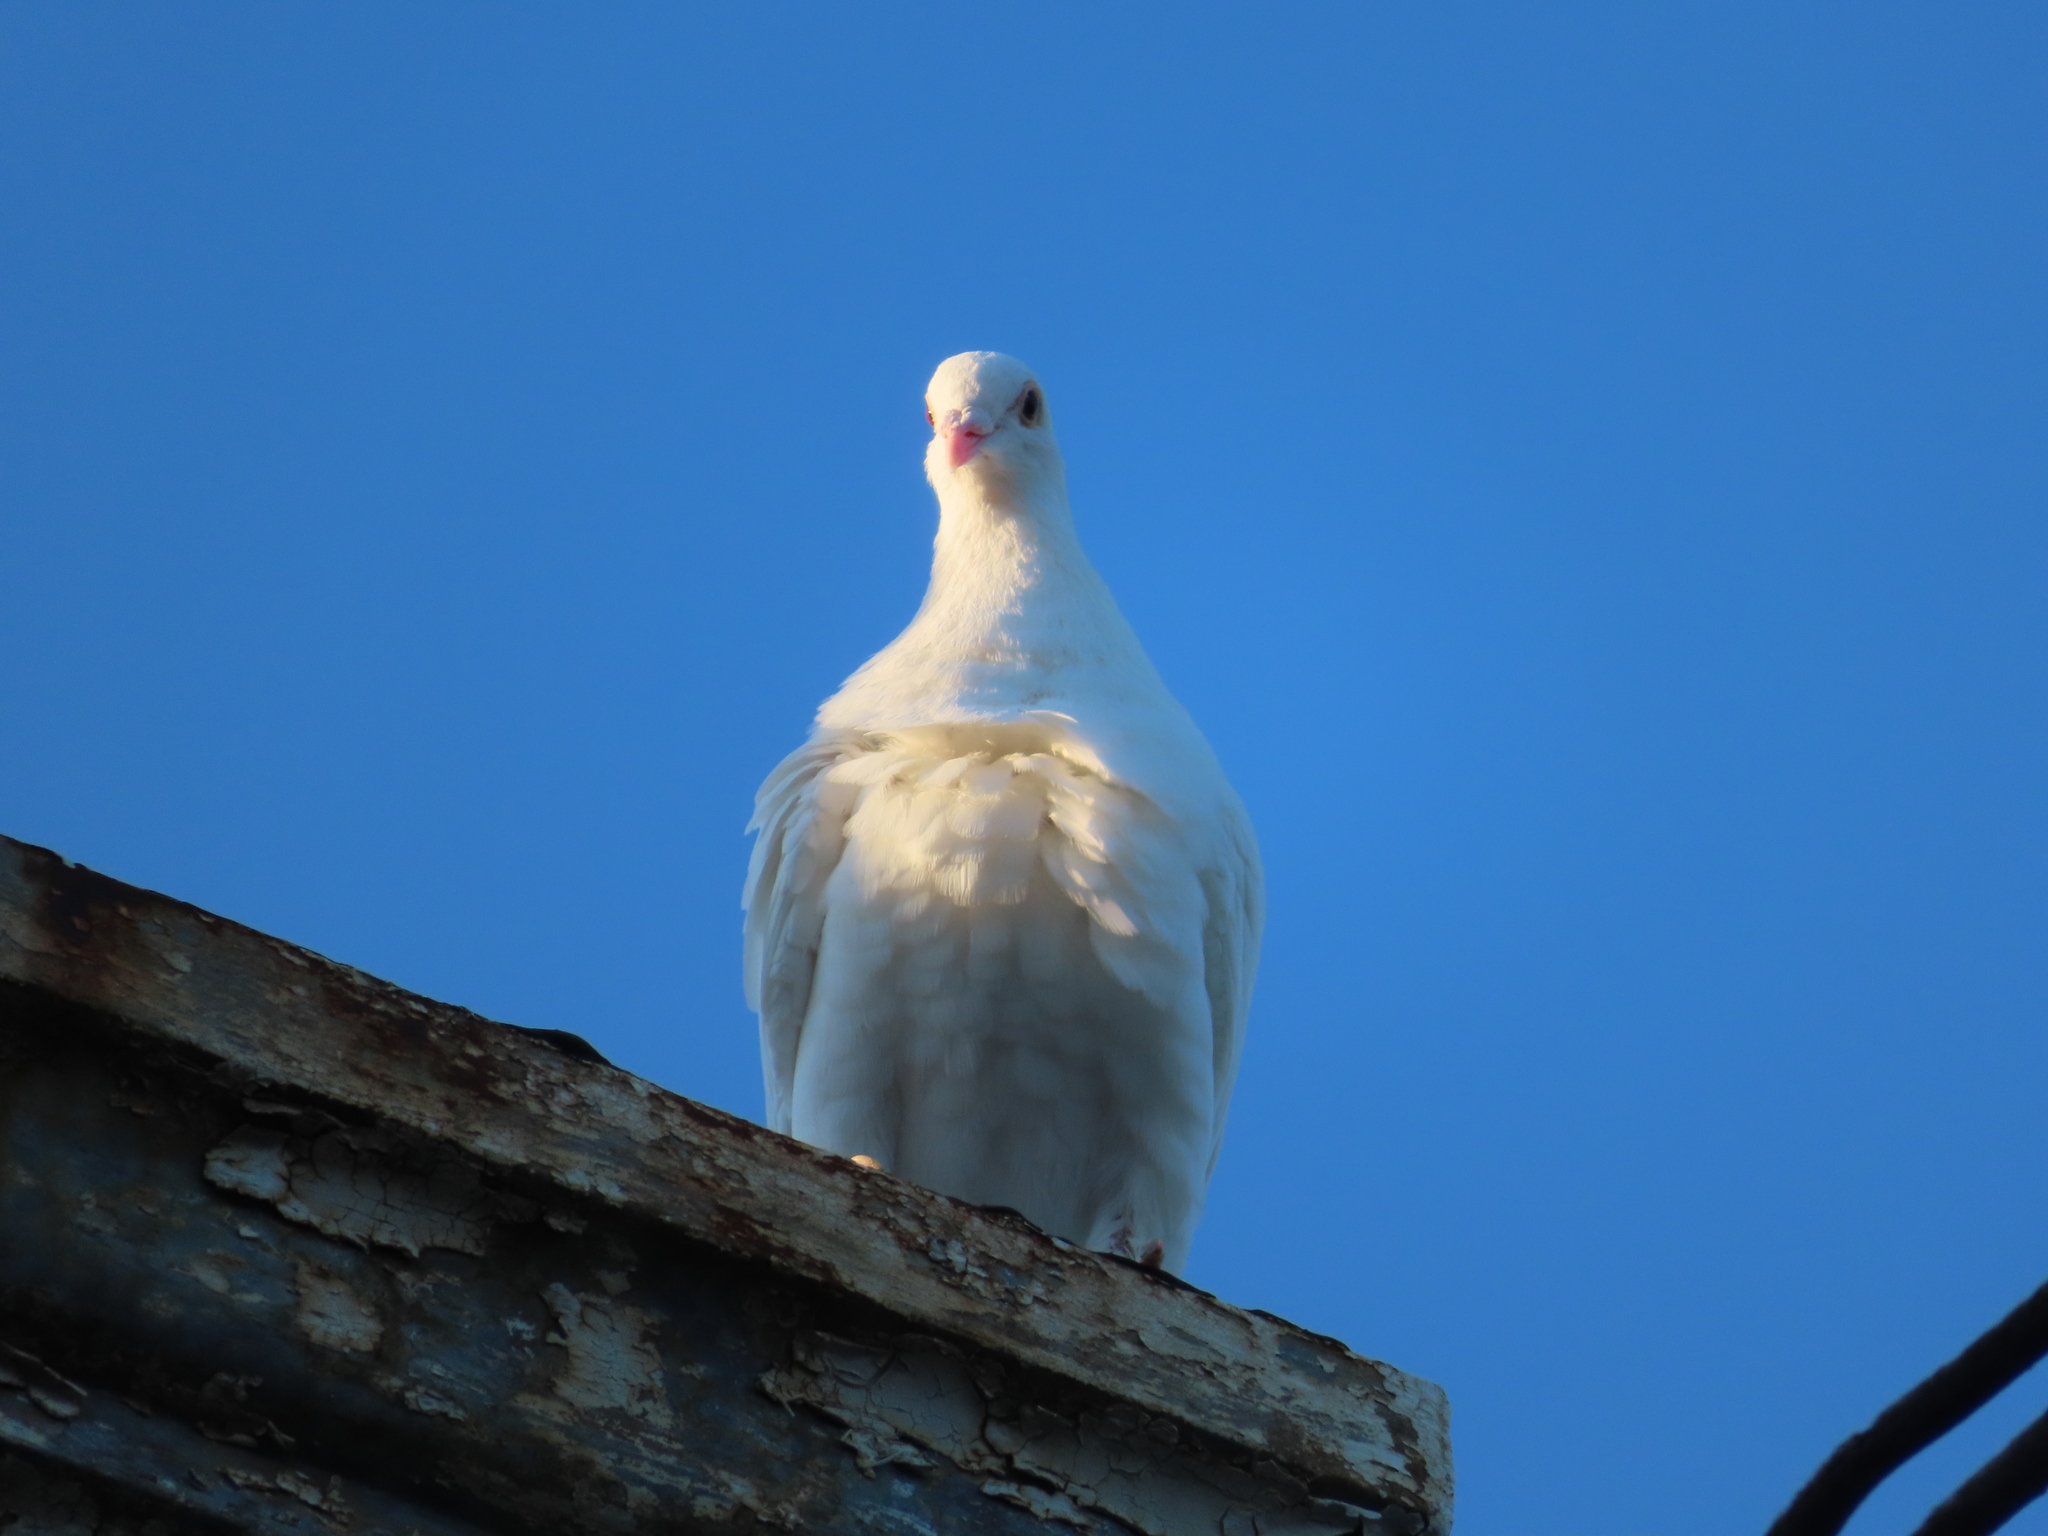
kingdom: Animalia
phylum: Chordata
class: Aves
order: Columbiformes
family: Columbidae
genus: Columba
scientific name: Columba livia
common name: Rock pigeon
